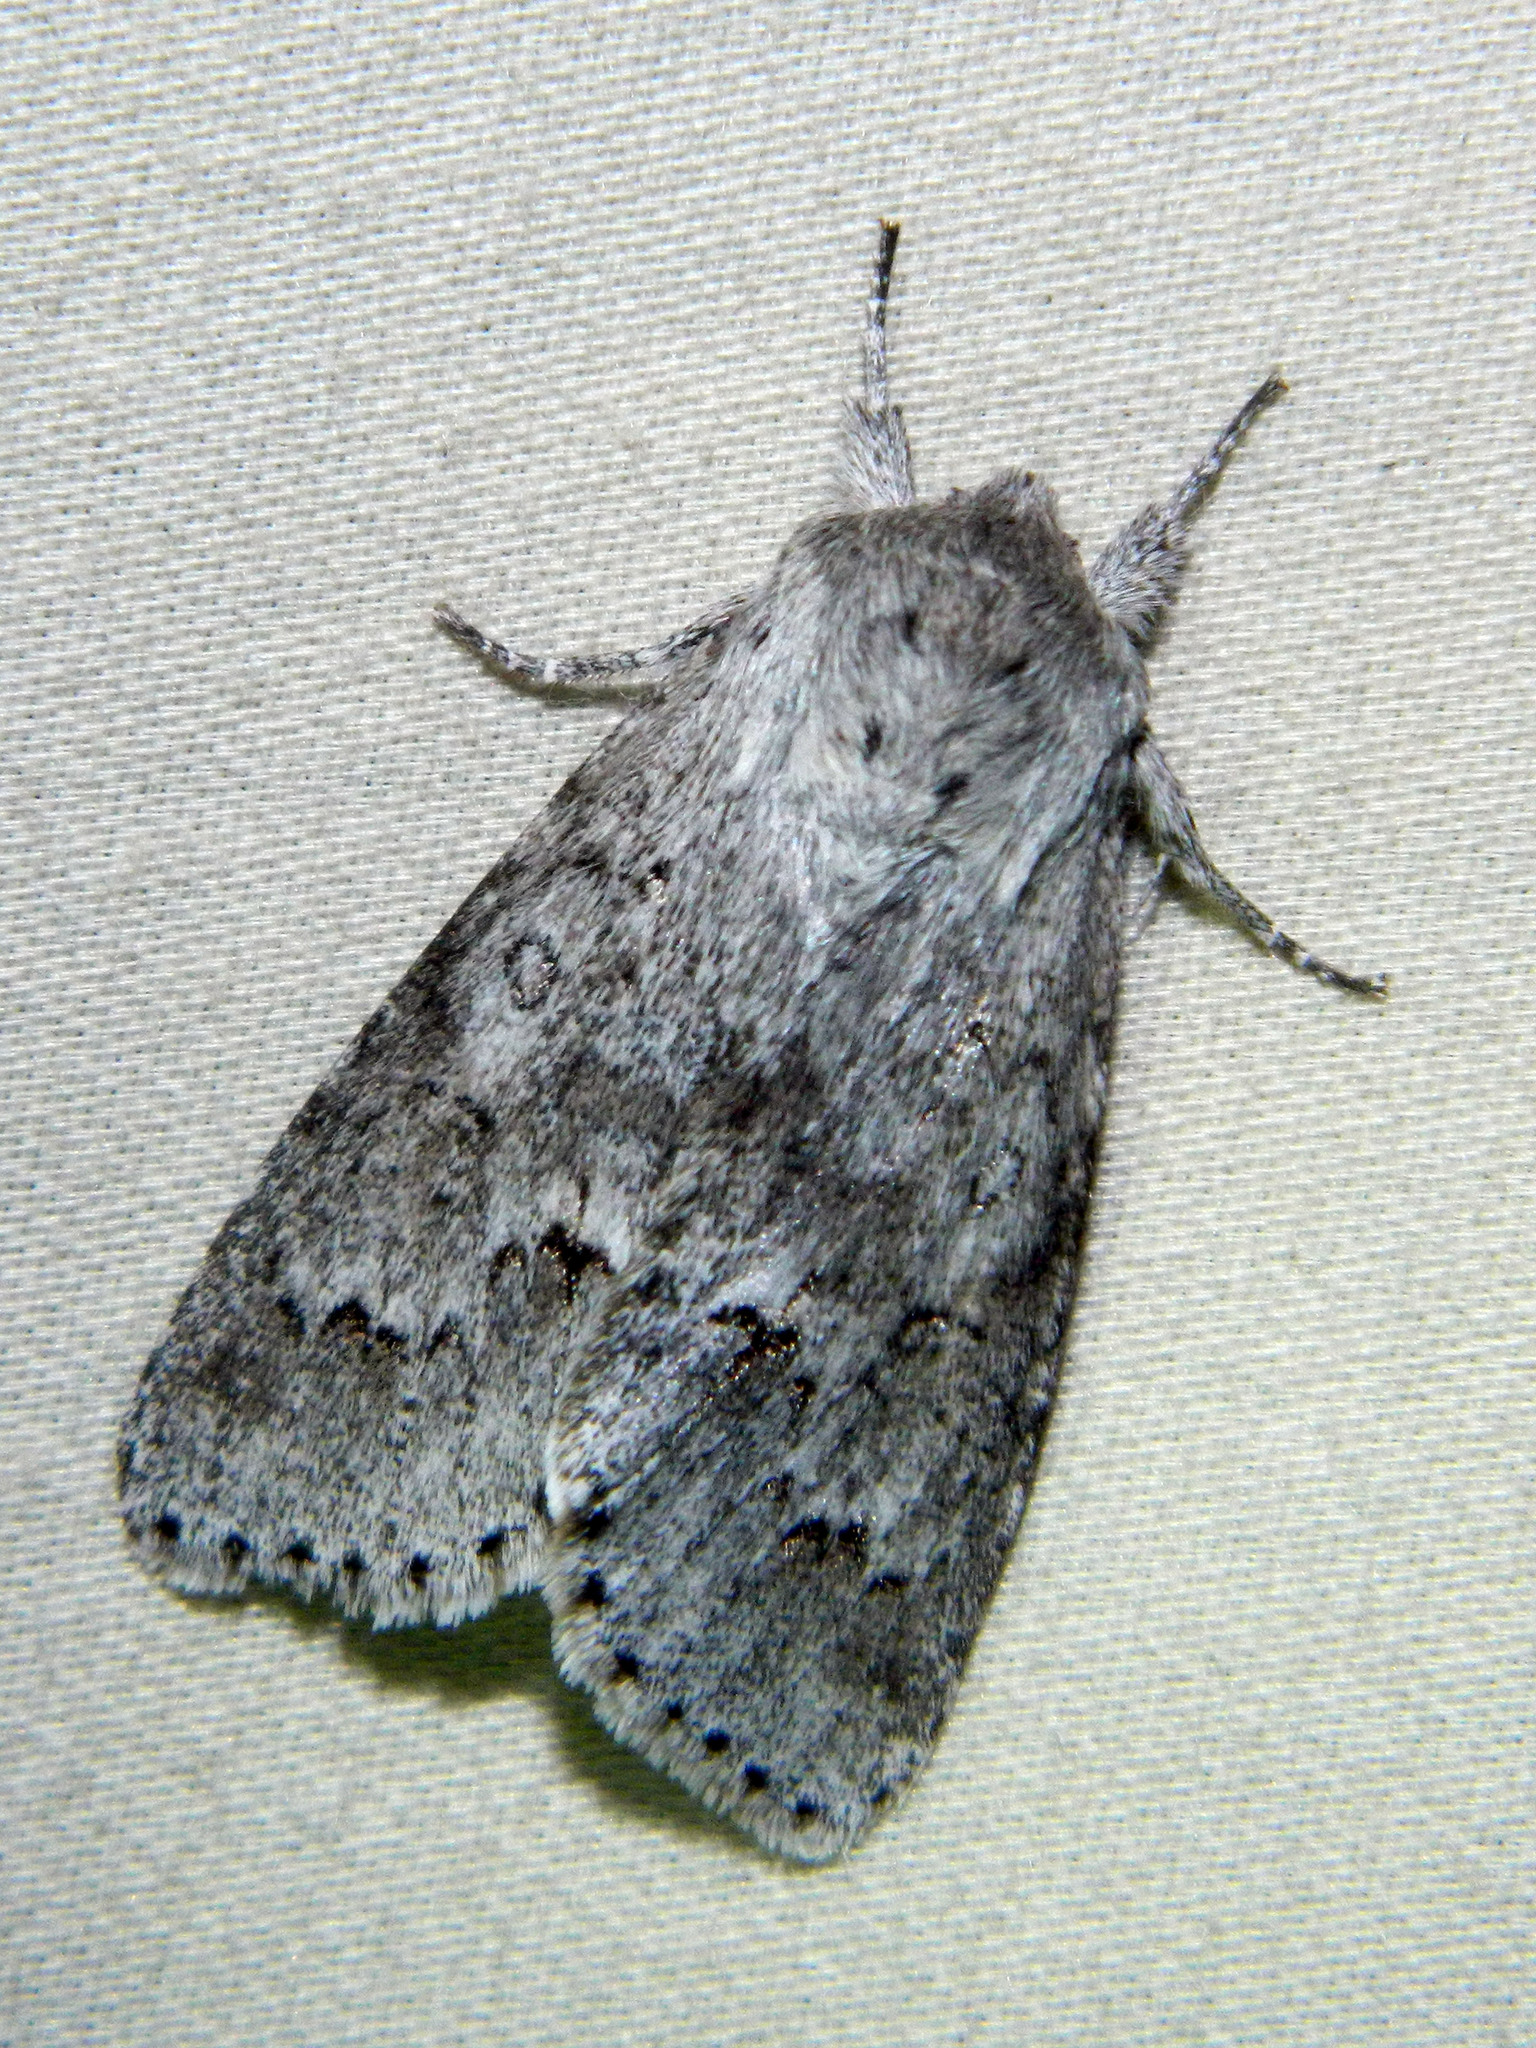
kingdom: Animalia
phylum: Arthropoda
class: Insecta
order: Lepidoptera
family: Noctuidae
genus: Acronicta
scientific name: Acronicta insita
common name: Large gray dagger
